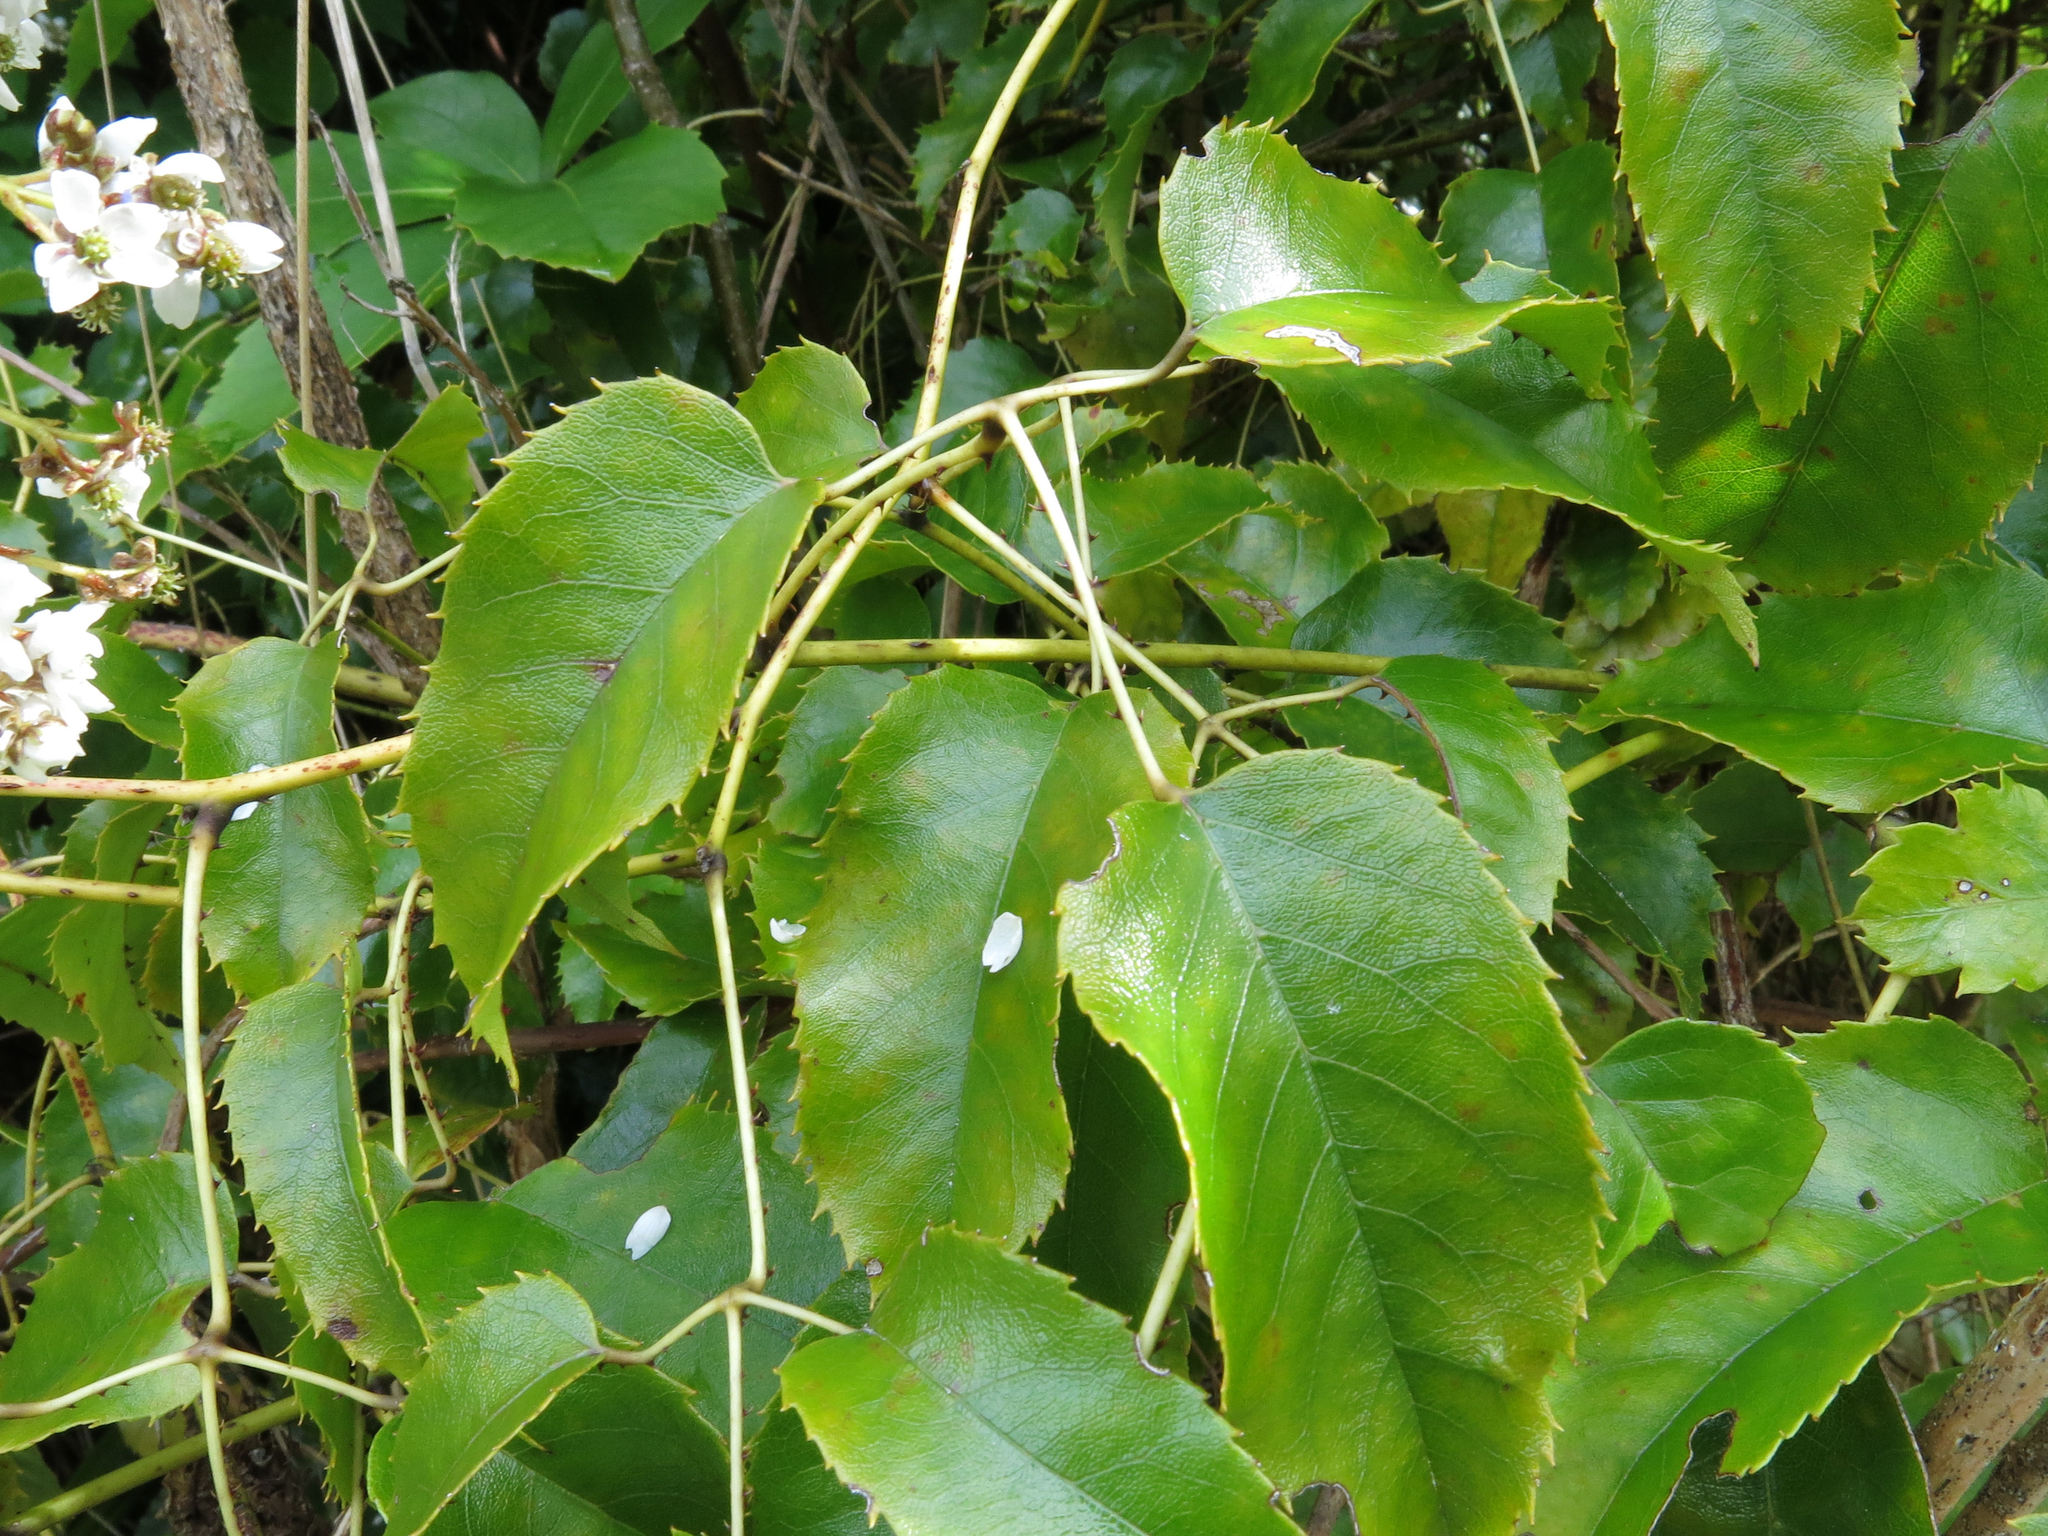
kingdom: Plantae
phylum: Tracheophyta
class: Magnoliopsida
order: Rosales
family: Rosaceae
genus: Rubus
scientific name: Rubus cissoides
